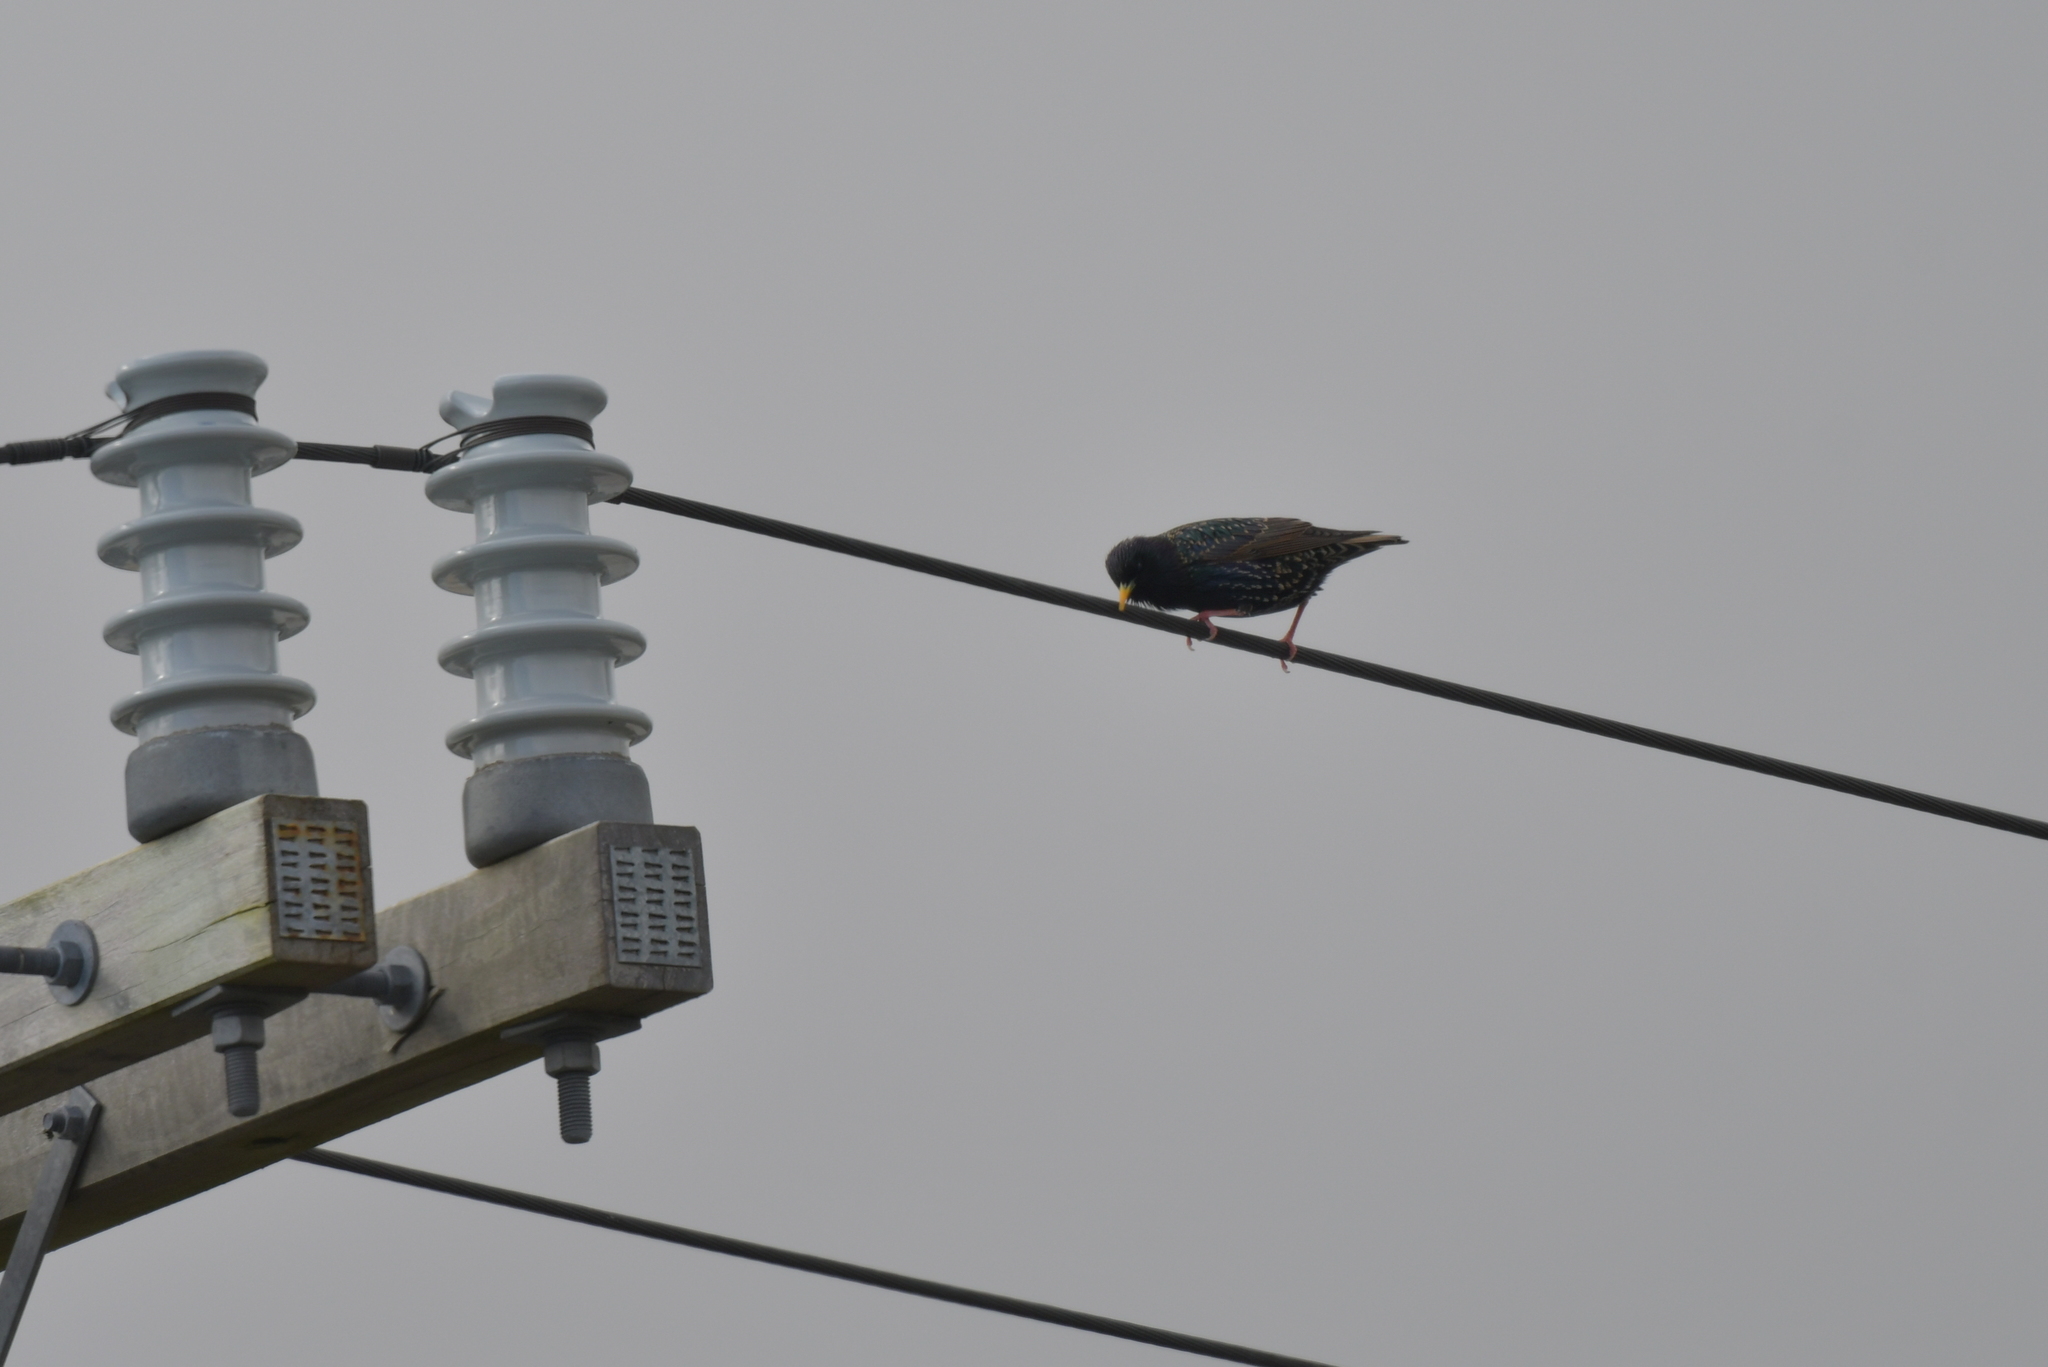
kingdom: Animalia
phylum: Chordata
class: Aves
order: Passeriformes
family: Sturnidae
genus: Sturnus
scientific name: Sturnus vulgaris
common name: Common starling
